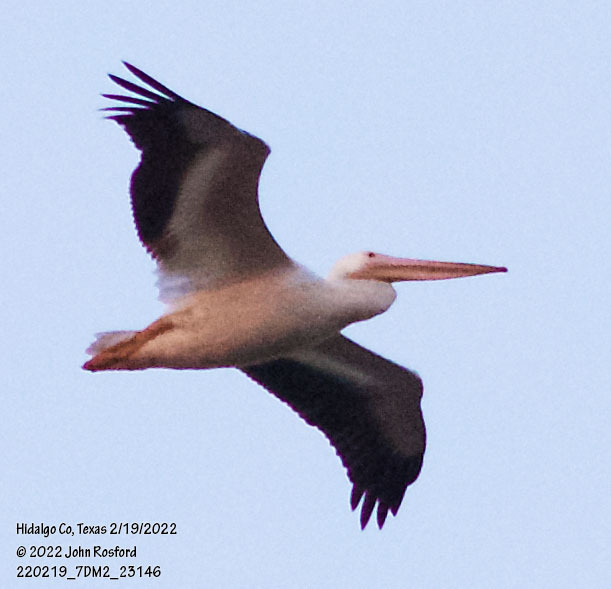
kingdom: Animalia
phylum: Chordata
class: Aves
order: Pelecaniformes
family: Pelecanidae
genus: Pelecanus
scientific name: Pelecanus erythrorhynchos
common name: American white pelican
